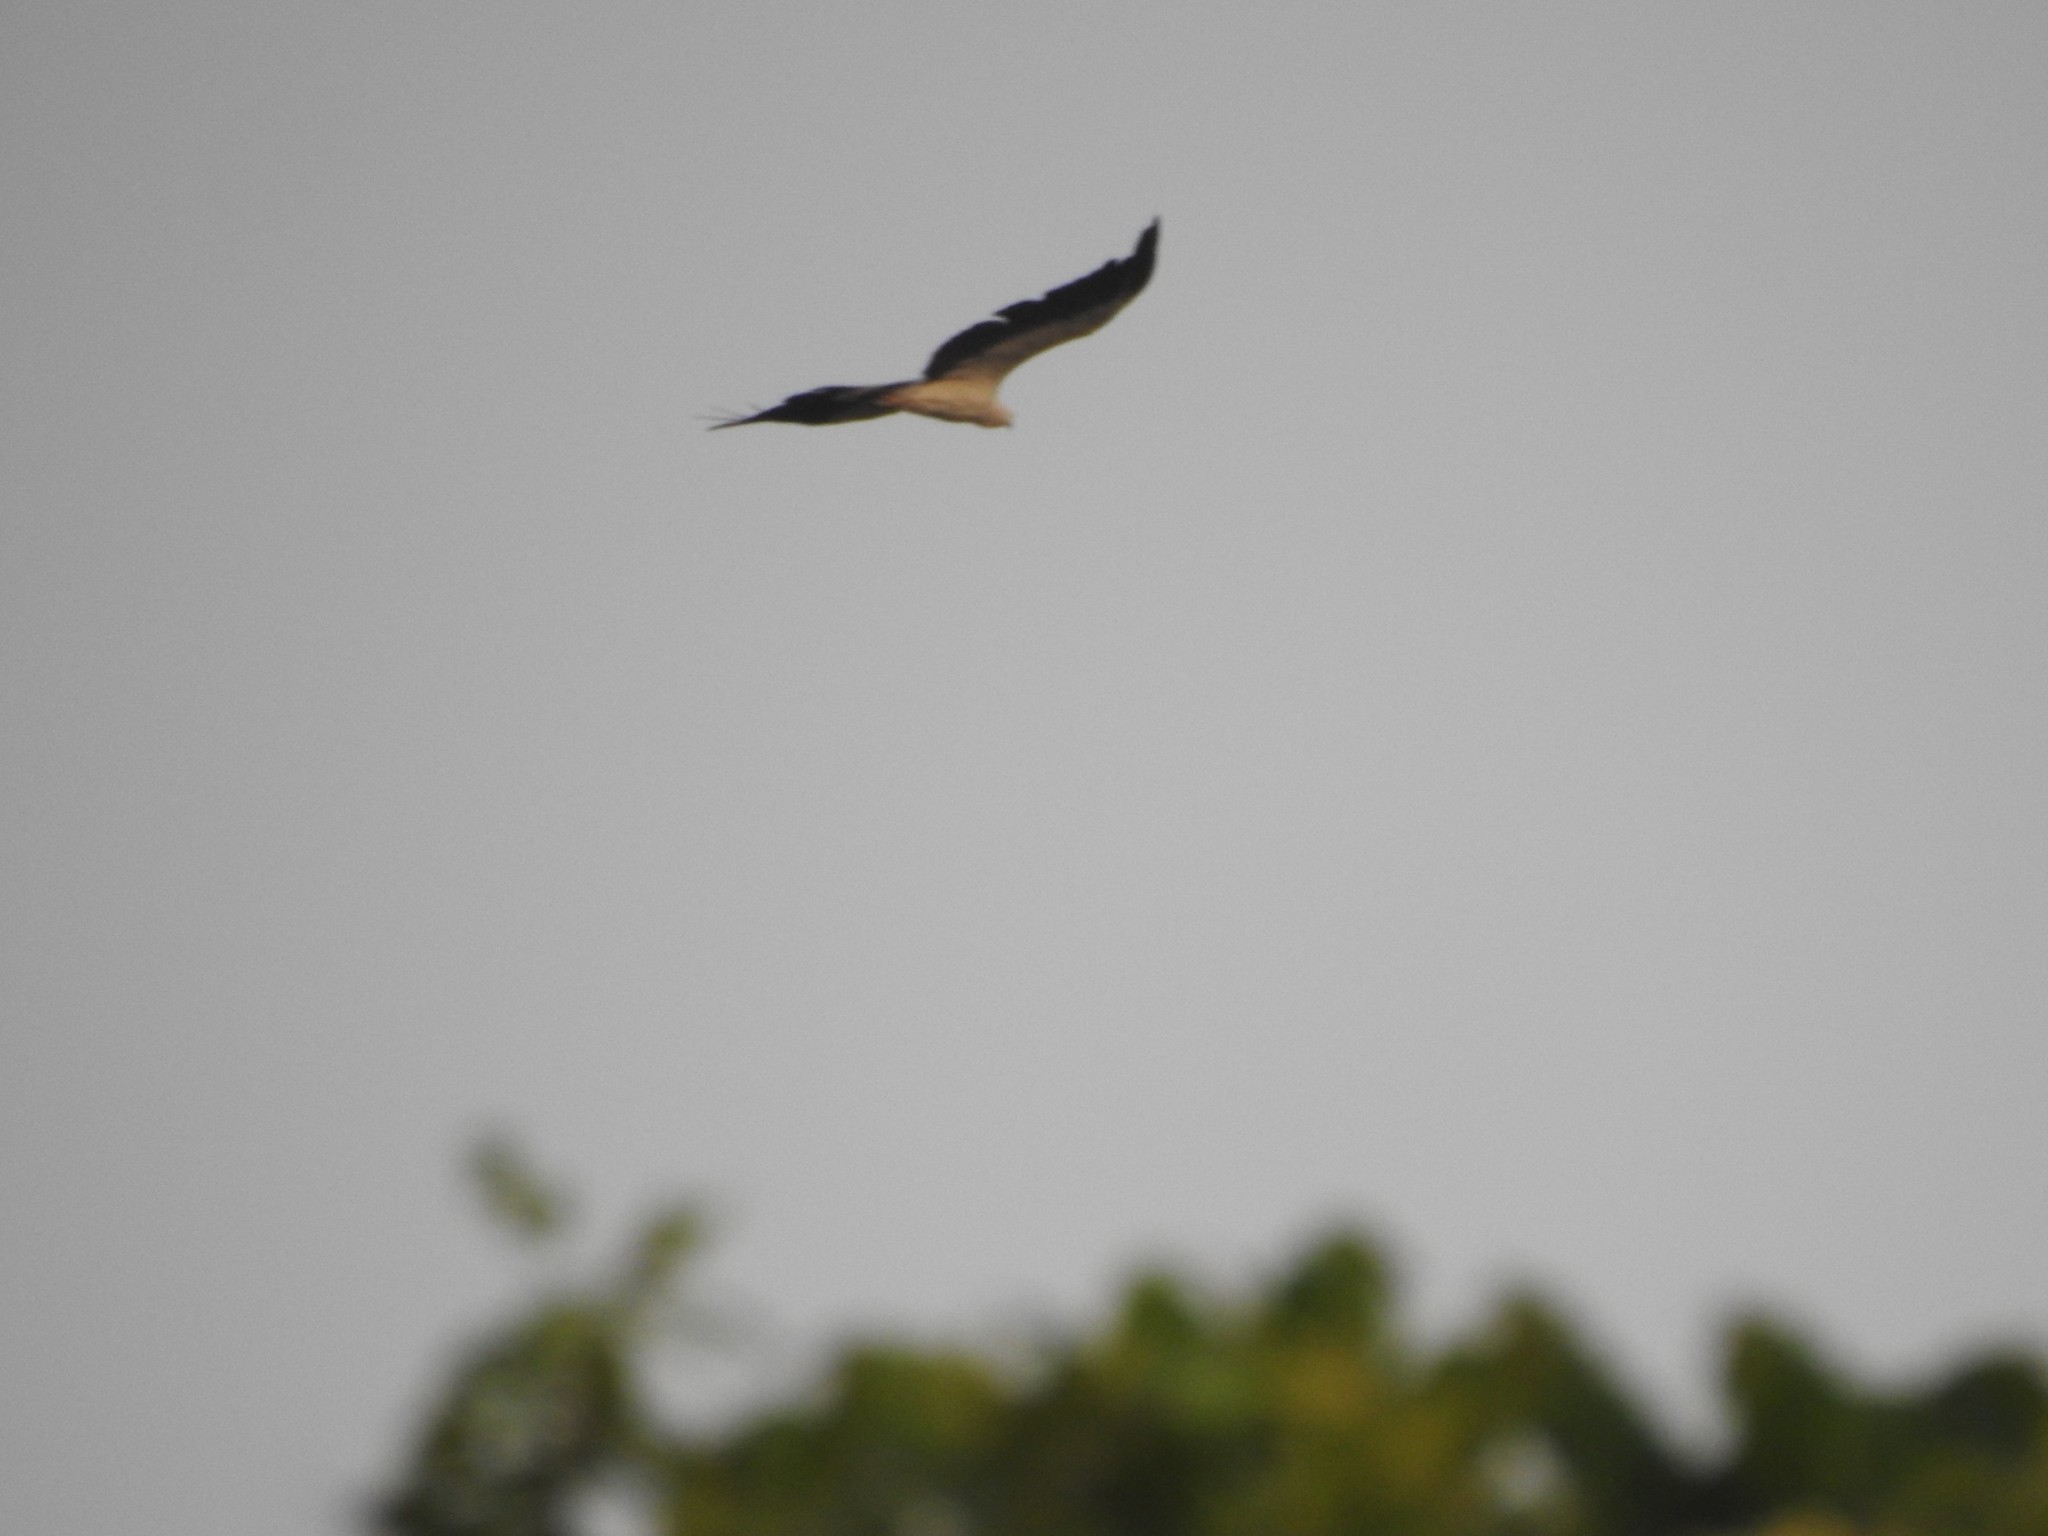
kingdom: Animalia
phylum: Chordata
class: Aves
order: Accipitriformes
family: Accipitridae
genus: Haliaeetus
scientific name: Haliaeetus leucogaster
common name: White-bellied sea eagle
